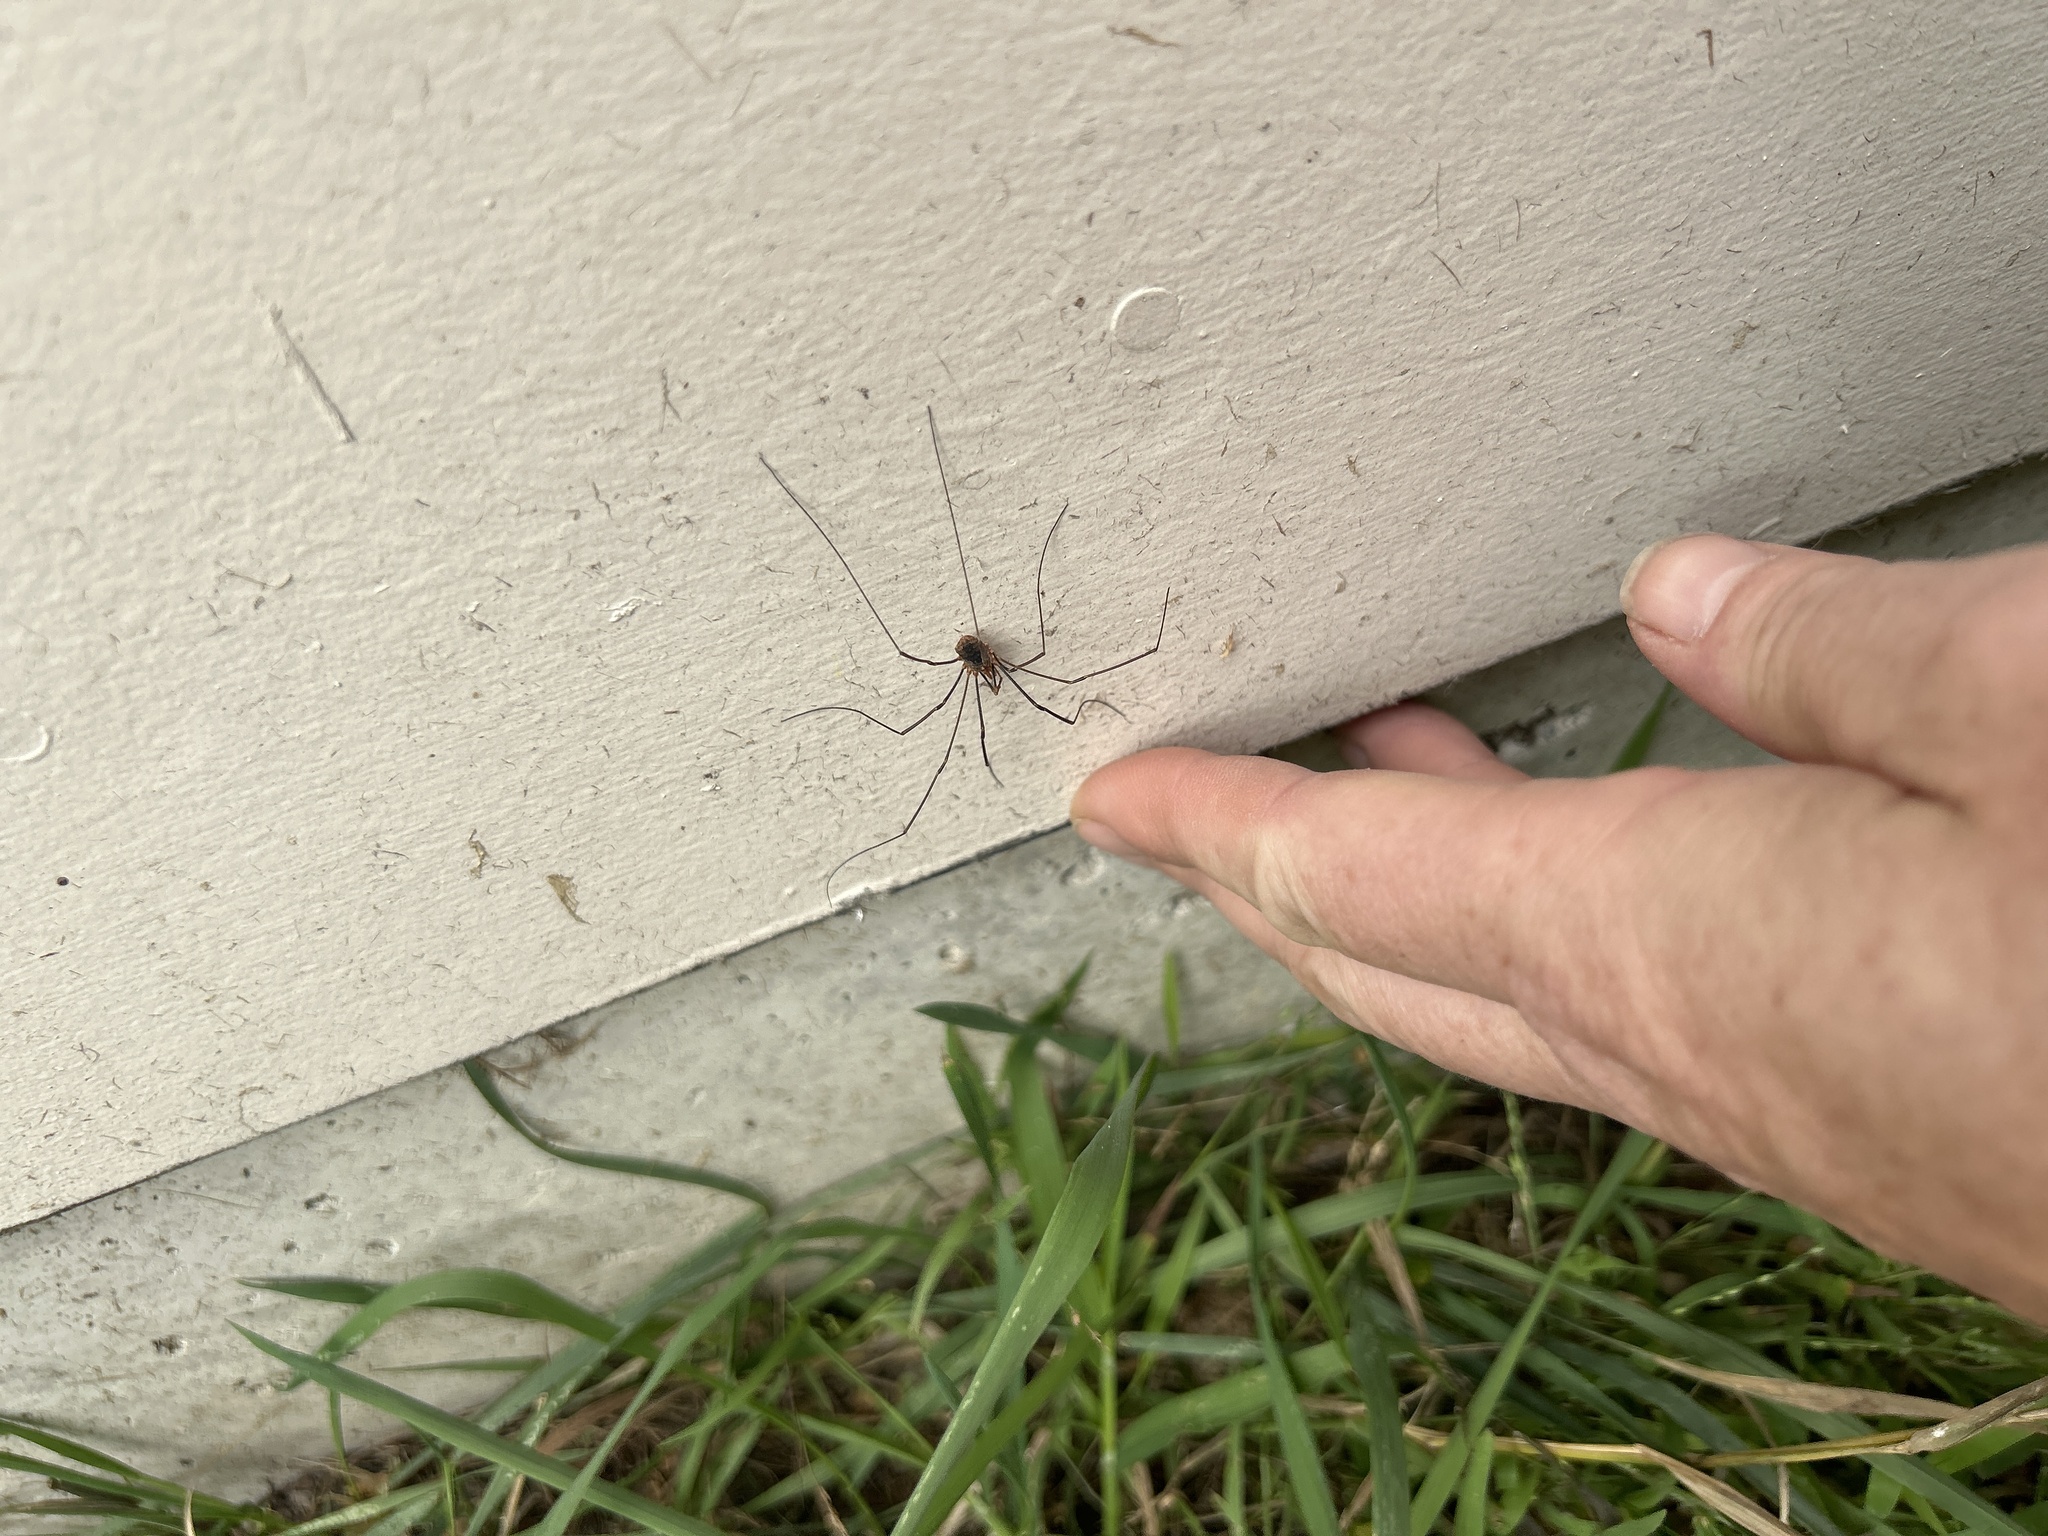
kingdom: Animalia
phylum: Arthropoda
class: Arachnida
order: Opiliones
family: Phalangiidae
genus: Phalangium
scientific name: Phalangium opilio
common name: Daddy longleg
